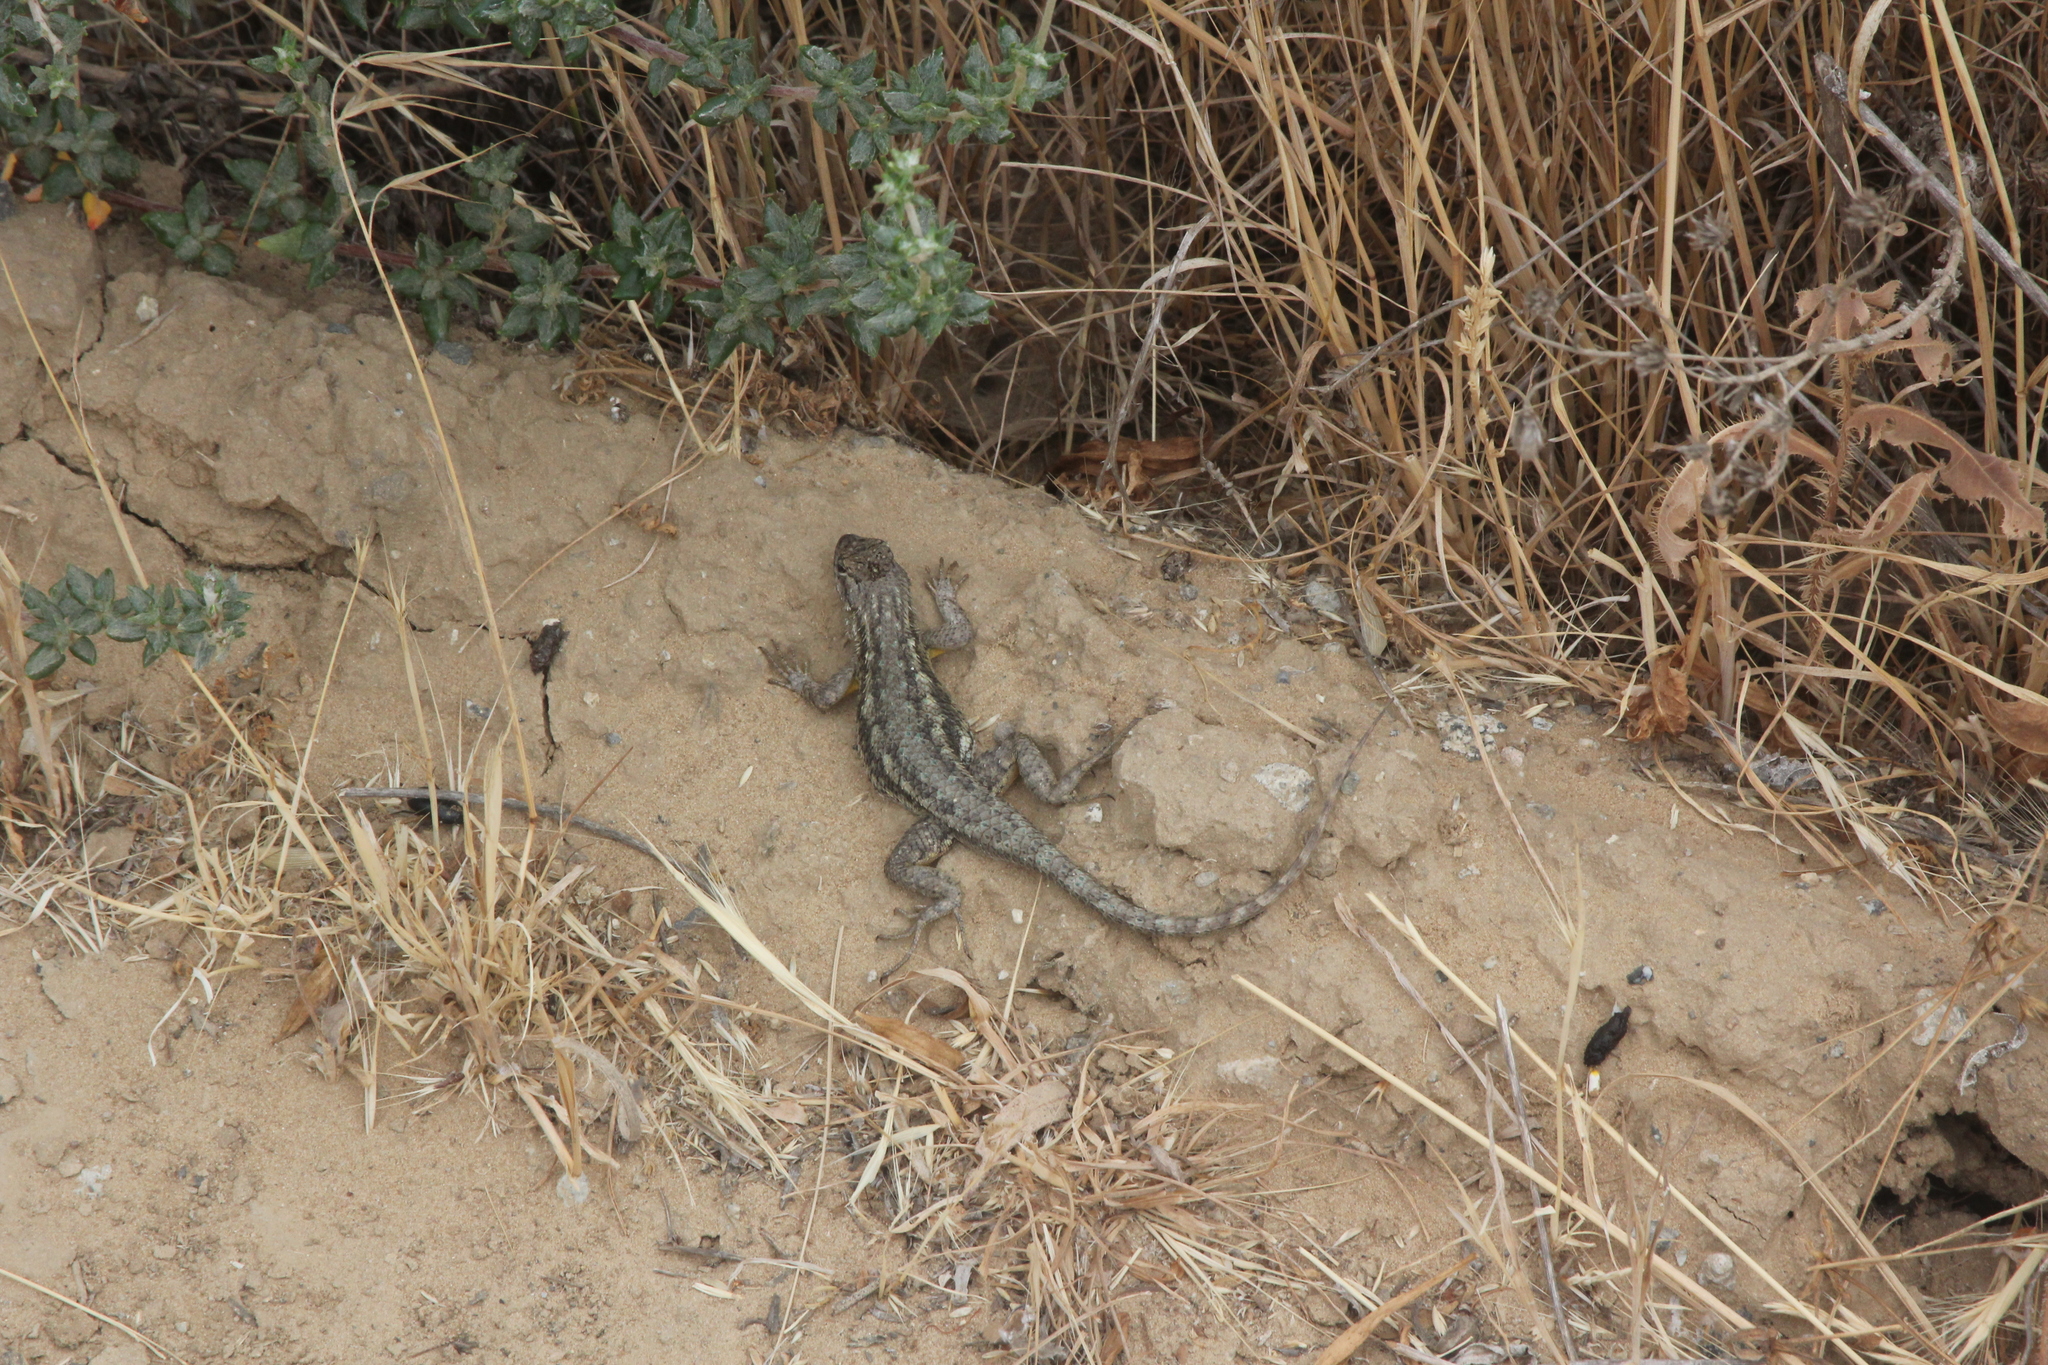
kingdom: Animalia
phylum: Chordata
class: Squamata
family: Phrynosomatidae
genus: Sceloporus
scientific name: Sceloporus occidentalis
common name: Western fence lizard
